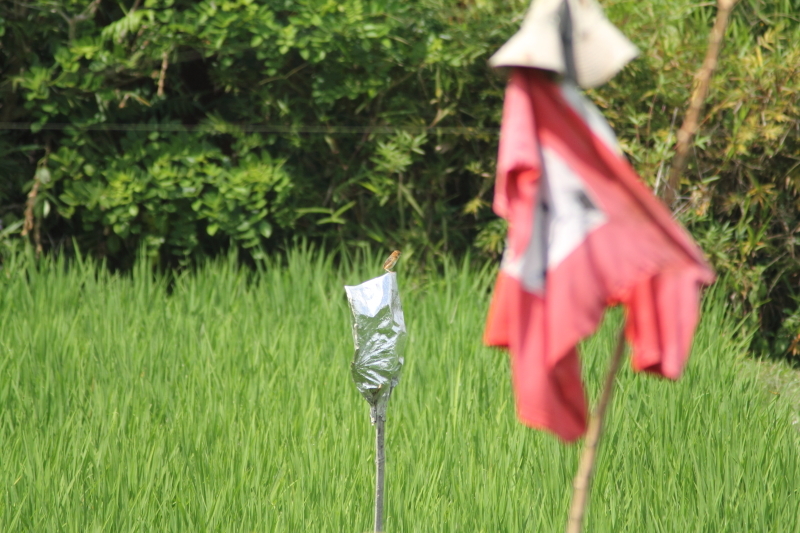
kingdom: Animalia
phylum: Chordata
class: Aves
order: Passeriformes
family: Cisticolidae
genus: Cisticola
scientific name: Cisticola exilis
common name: Golden-headed cisticola
